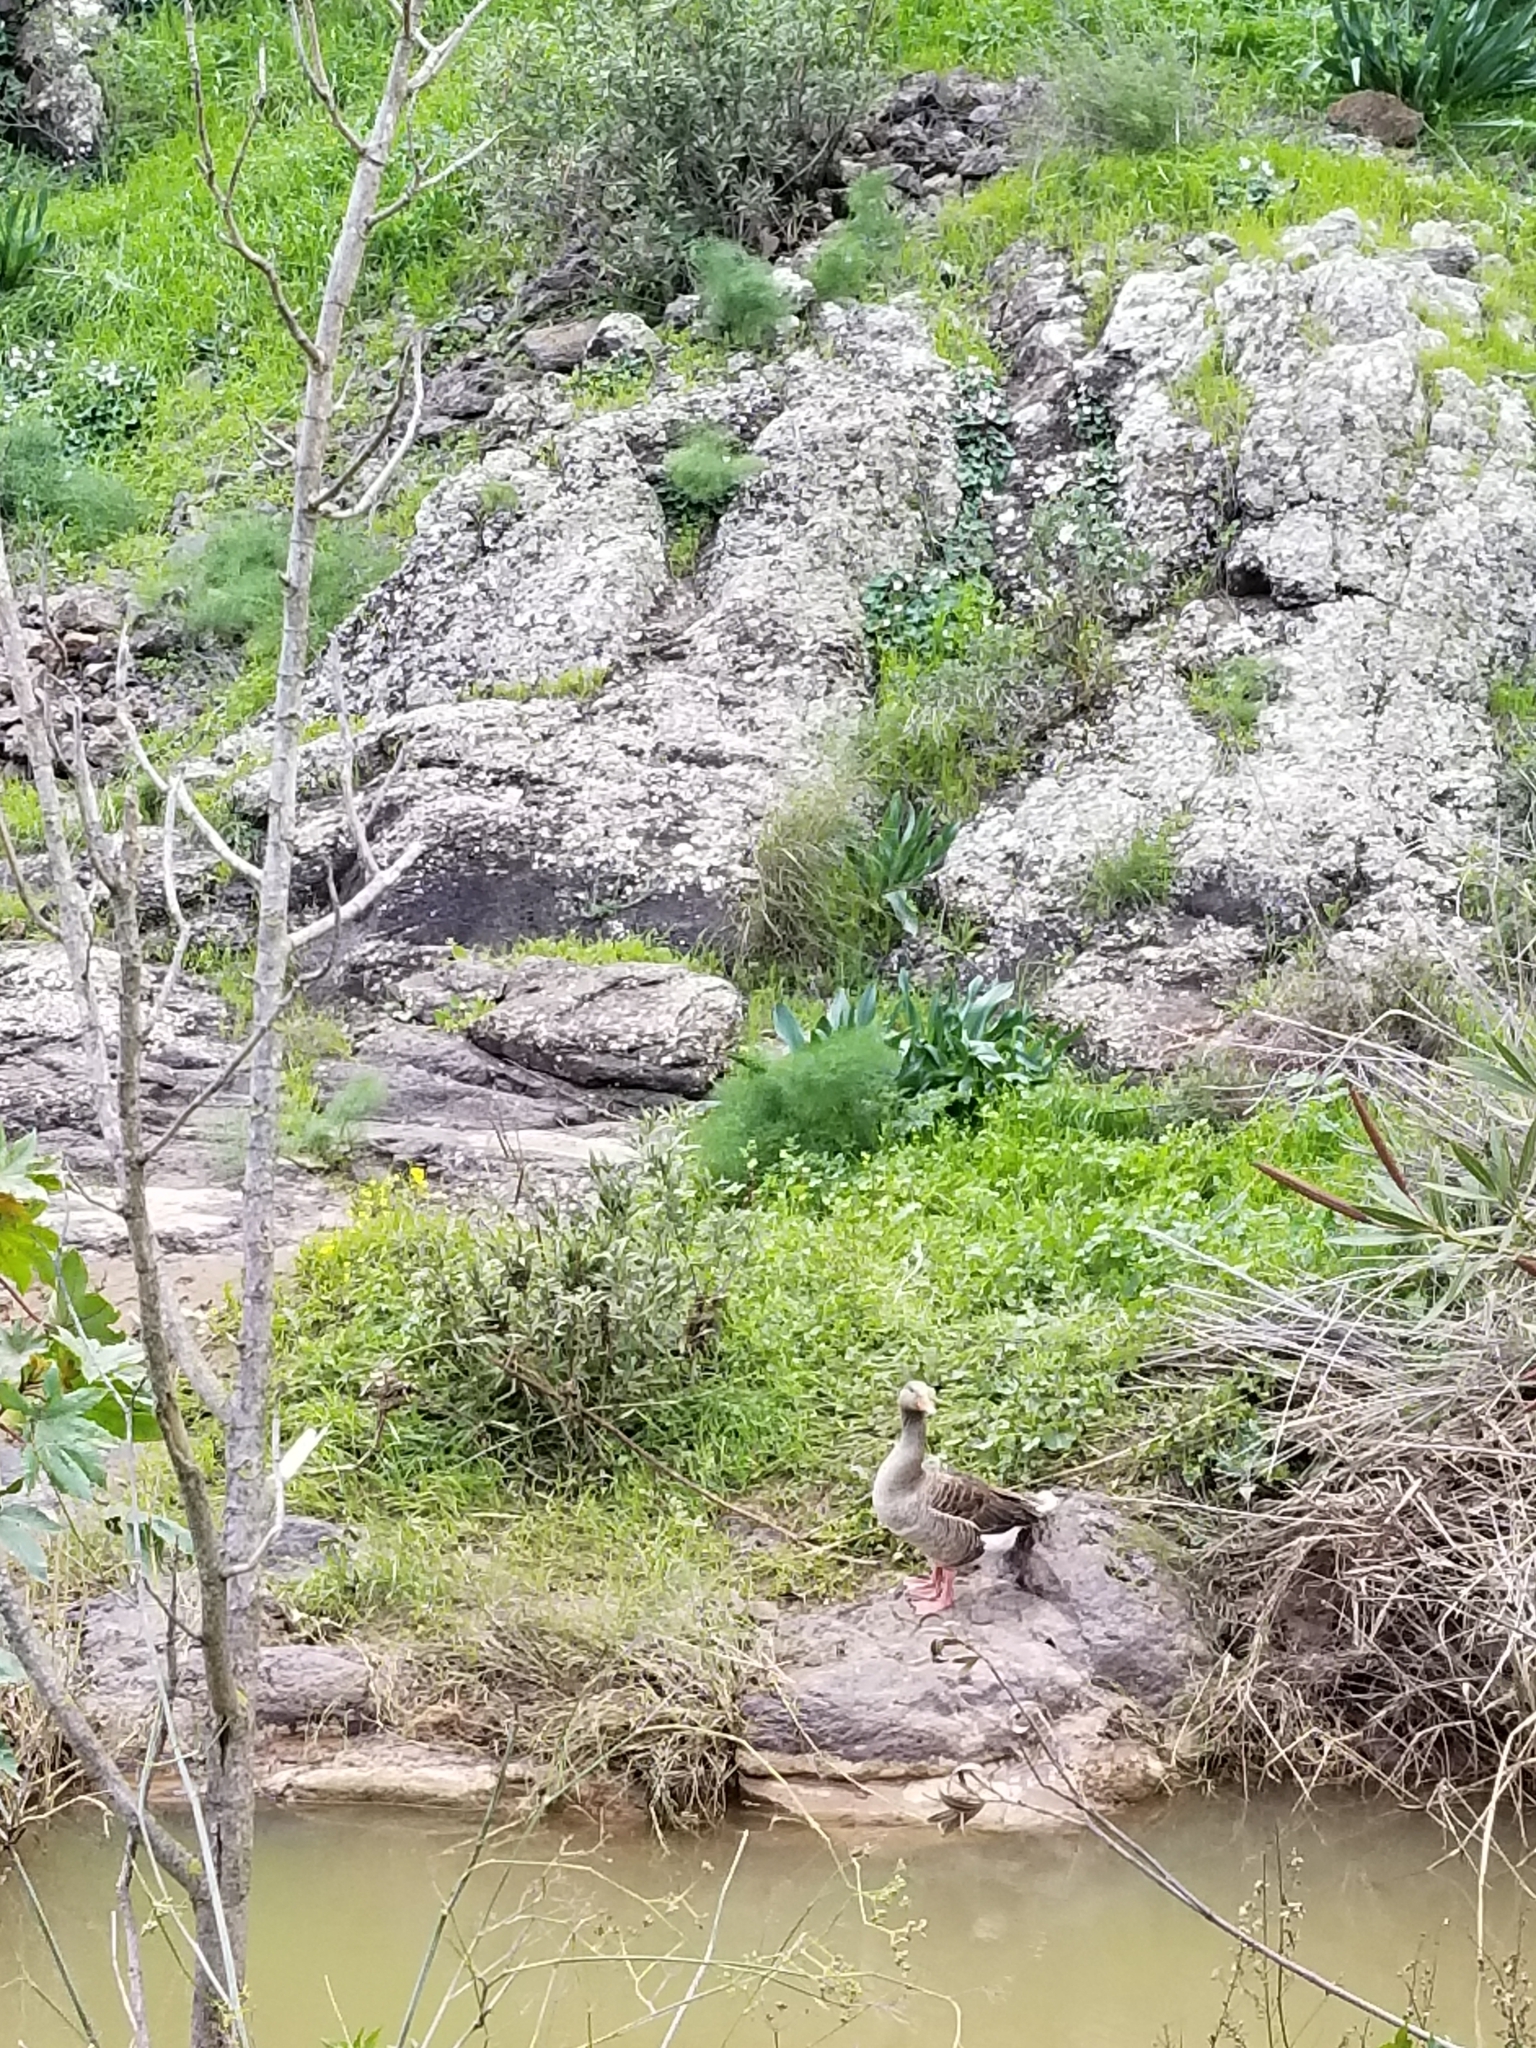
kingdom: Animalia
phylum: Chordata
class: Aves
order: Anseriformes
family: Anatidae
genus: Anser
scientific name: Anser anser
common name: Greylag goose
